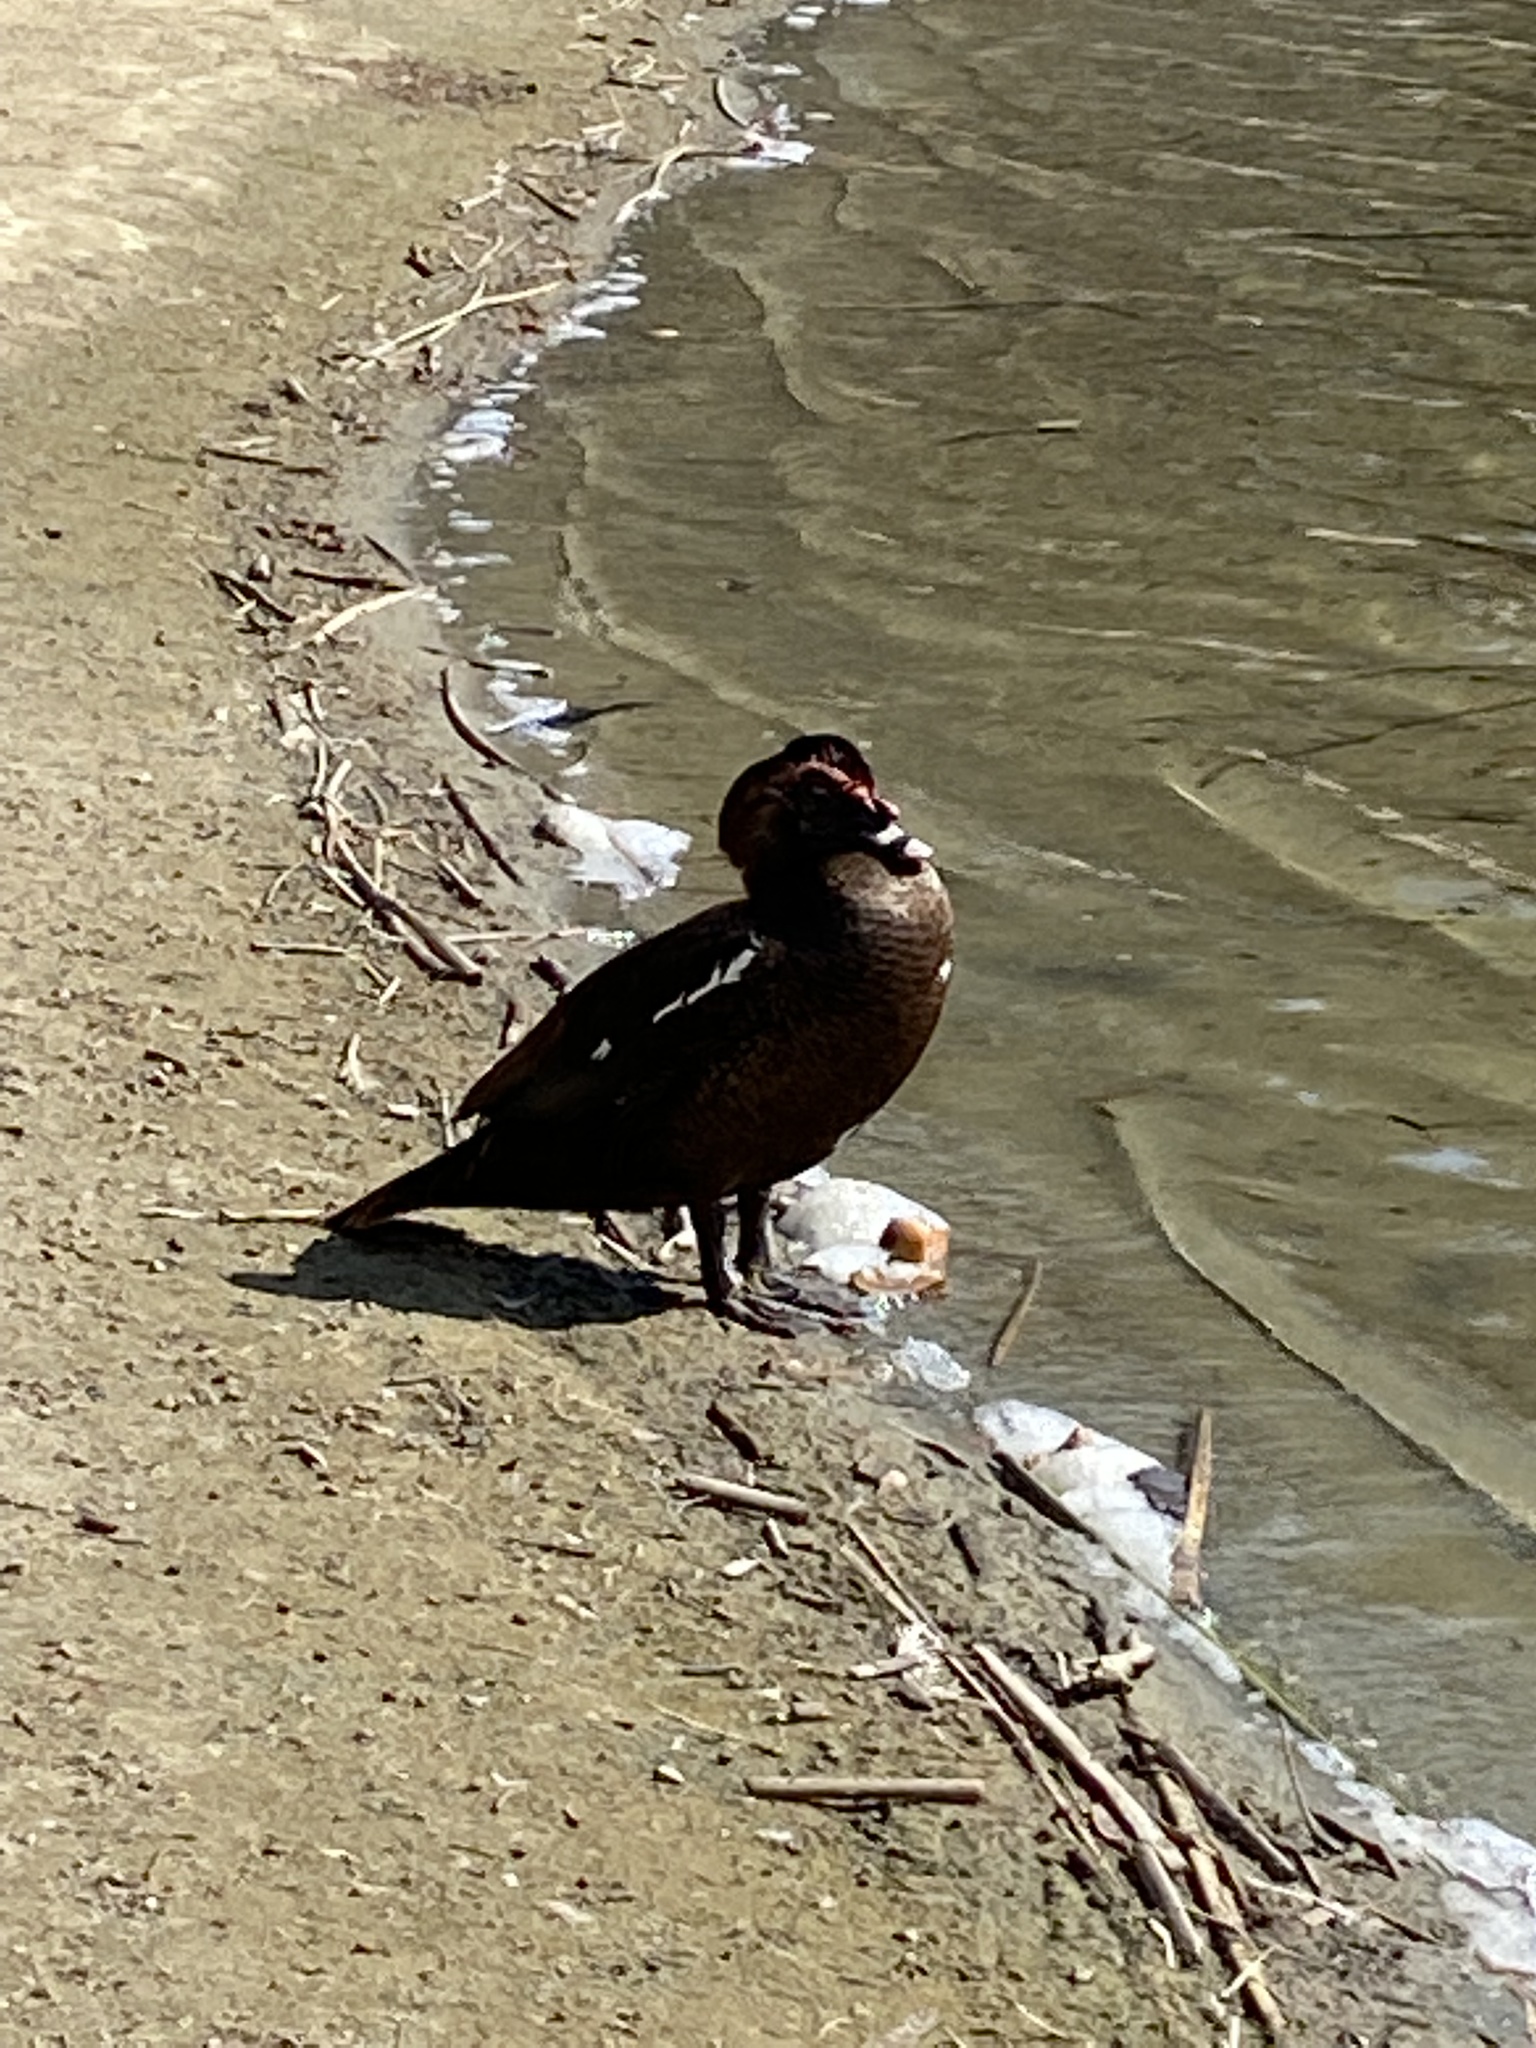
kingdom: Animalia
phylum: Chordata
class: Aves
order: Anseriformes
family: Anatidae
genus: Cairina
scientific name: Cairina moschata
